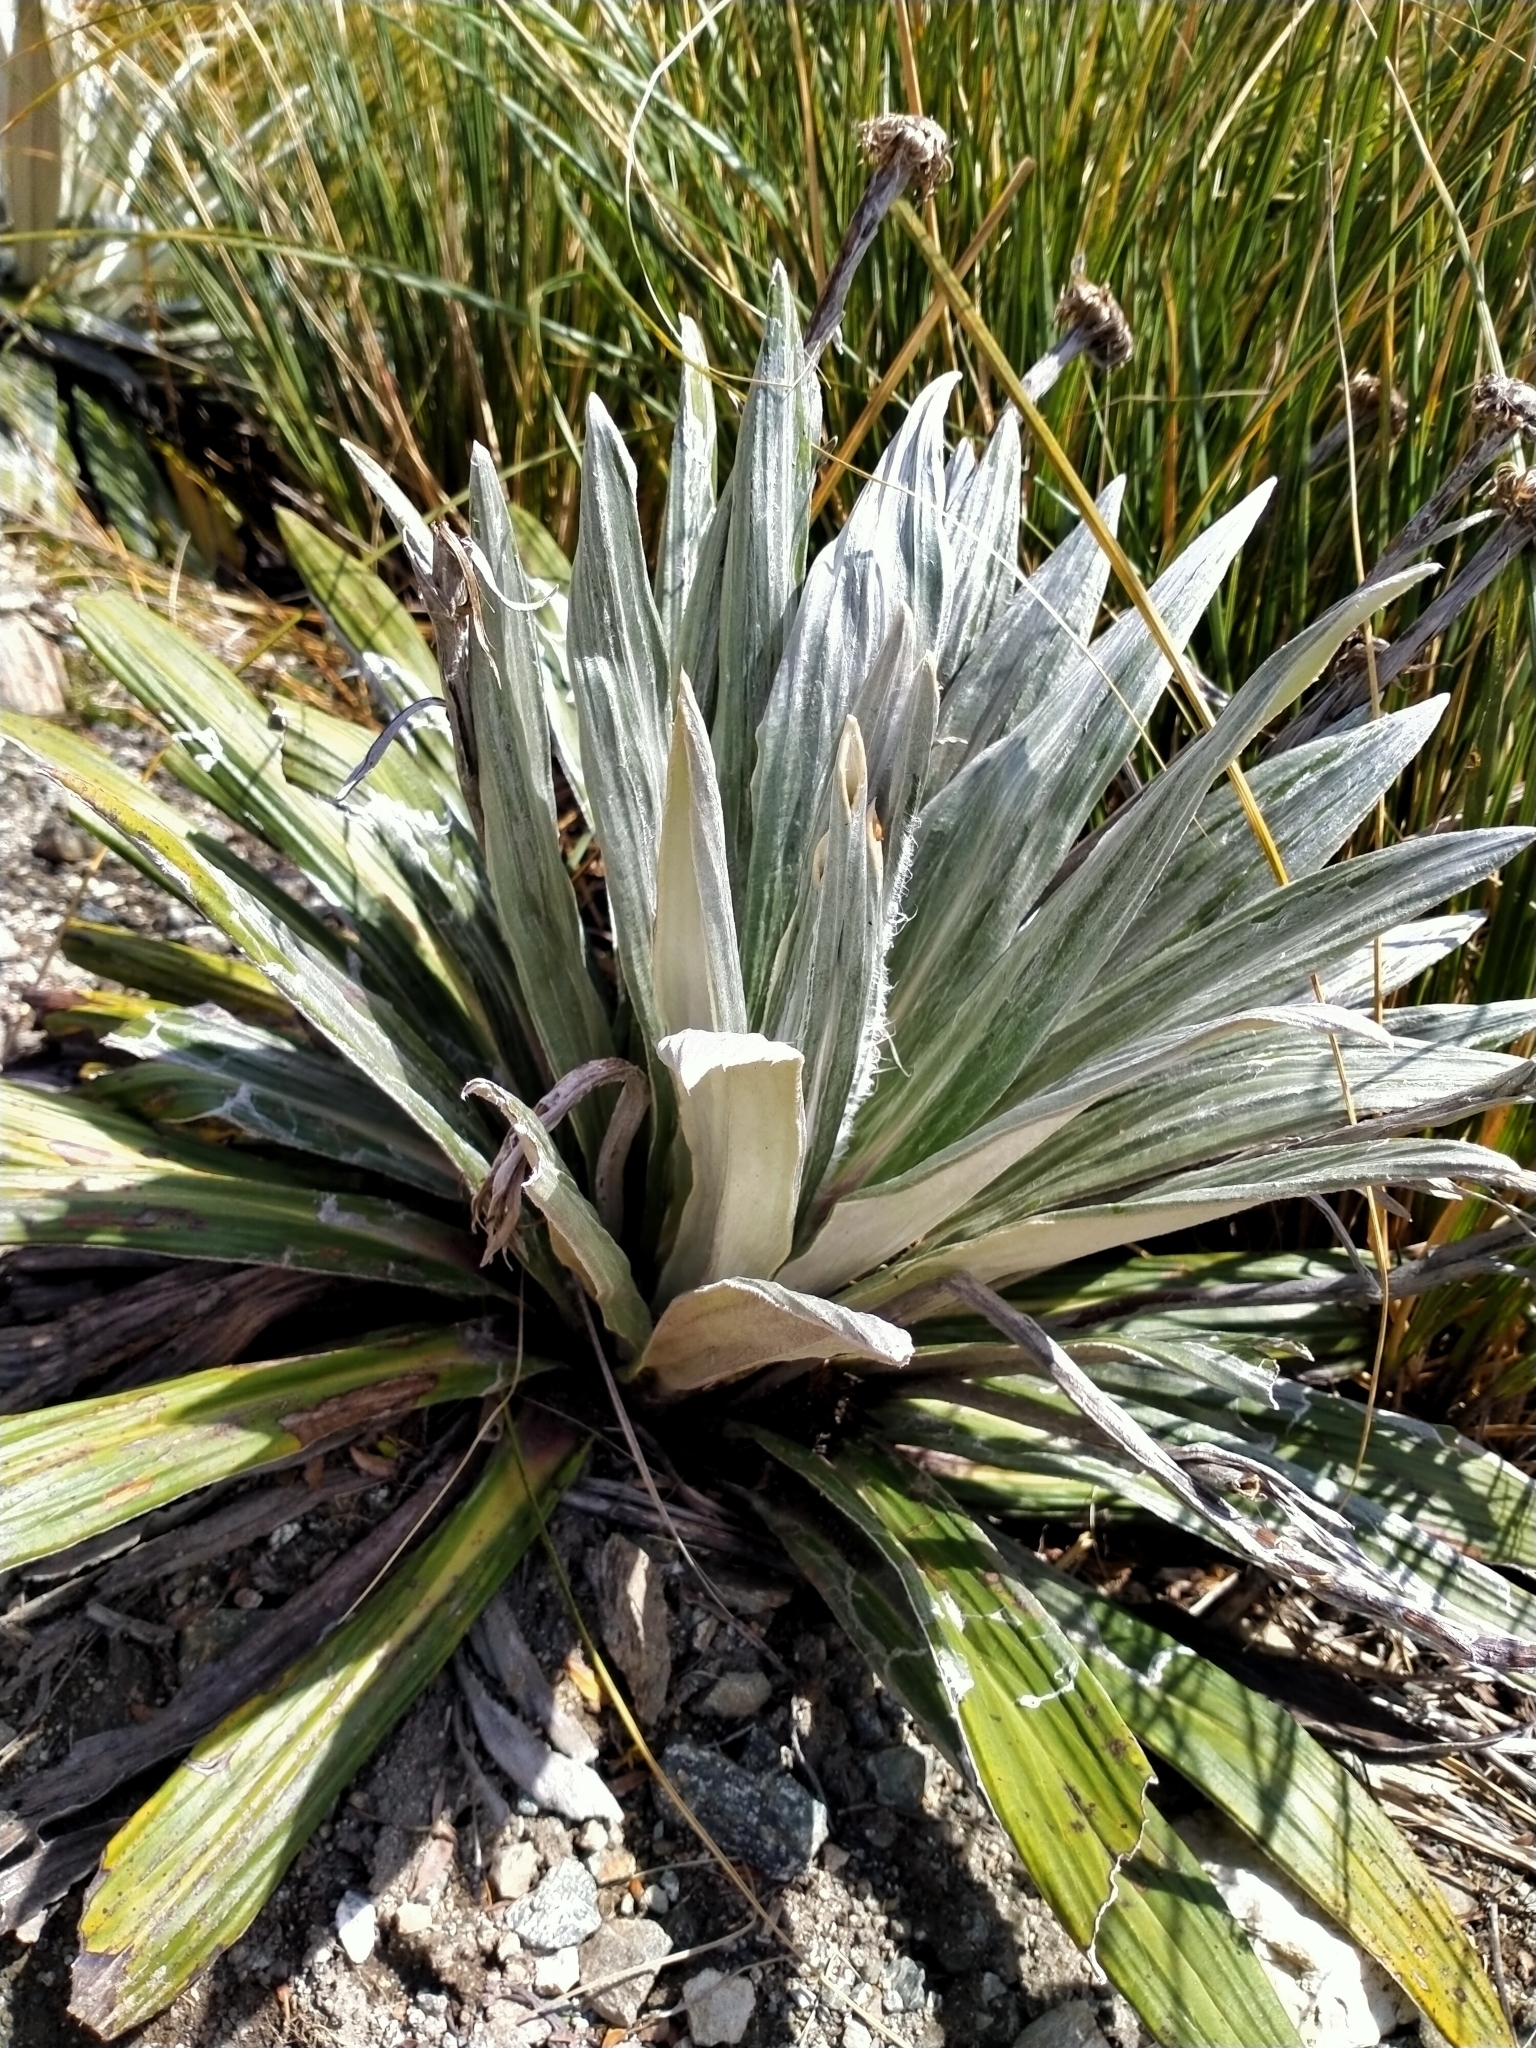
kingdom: Plantae
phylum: Tracheophyta
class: Magnoliopsida
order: Asterales
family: Asteraceae
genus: Celmisia
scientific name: Celmisia semicordata
